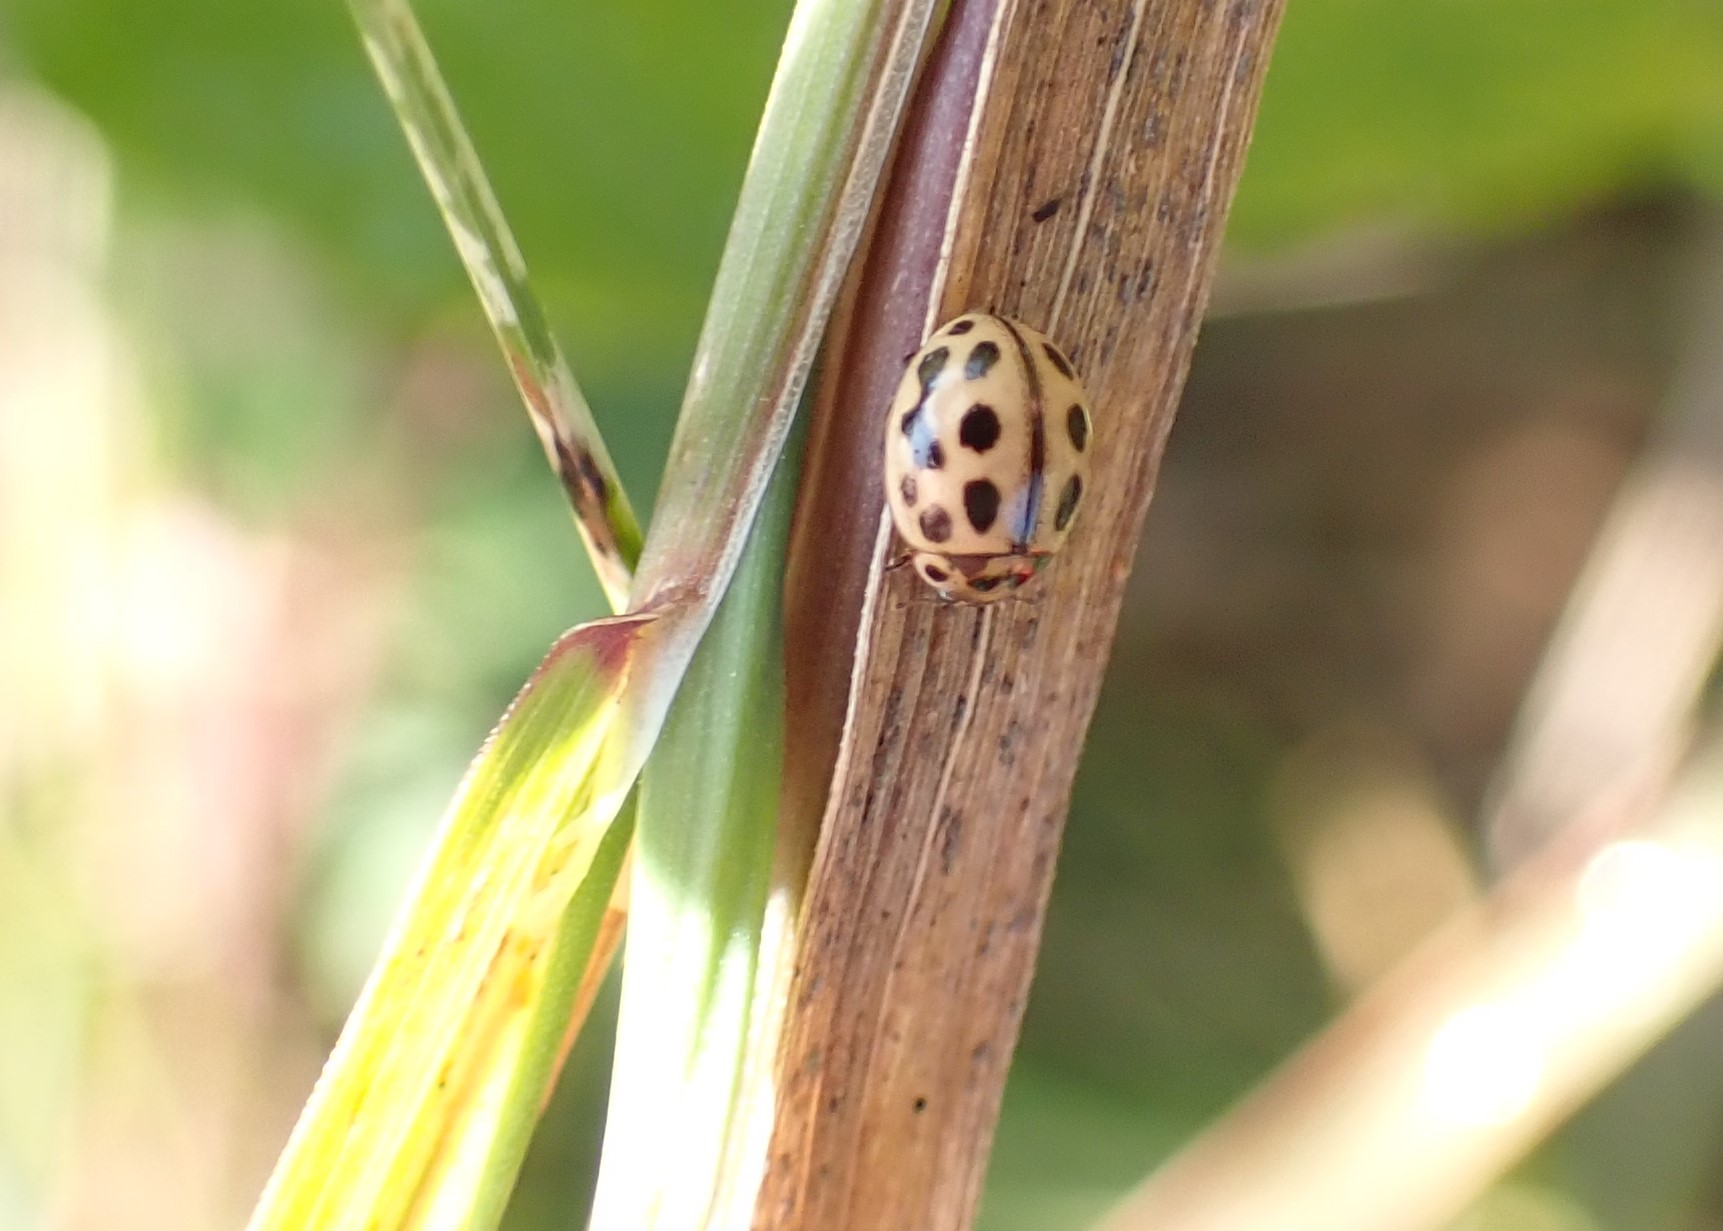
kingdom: Animalia
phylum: Arthropoda
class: Insecta
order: Coleoptera
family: Coccinellidae
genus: Tytthaspis
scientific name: Tytthaspis sedecimpunctata
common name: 16-spot ladybird
